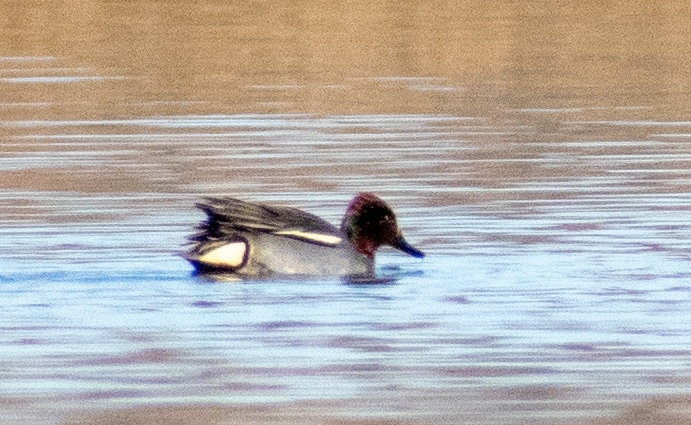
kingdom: Animalia
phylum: Chordata
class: Aves
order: Anseriformes
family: Anatidae
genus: Anas
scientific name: Anas crecca
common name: Eurasian teal
